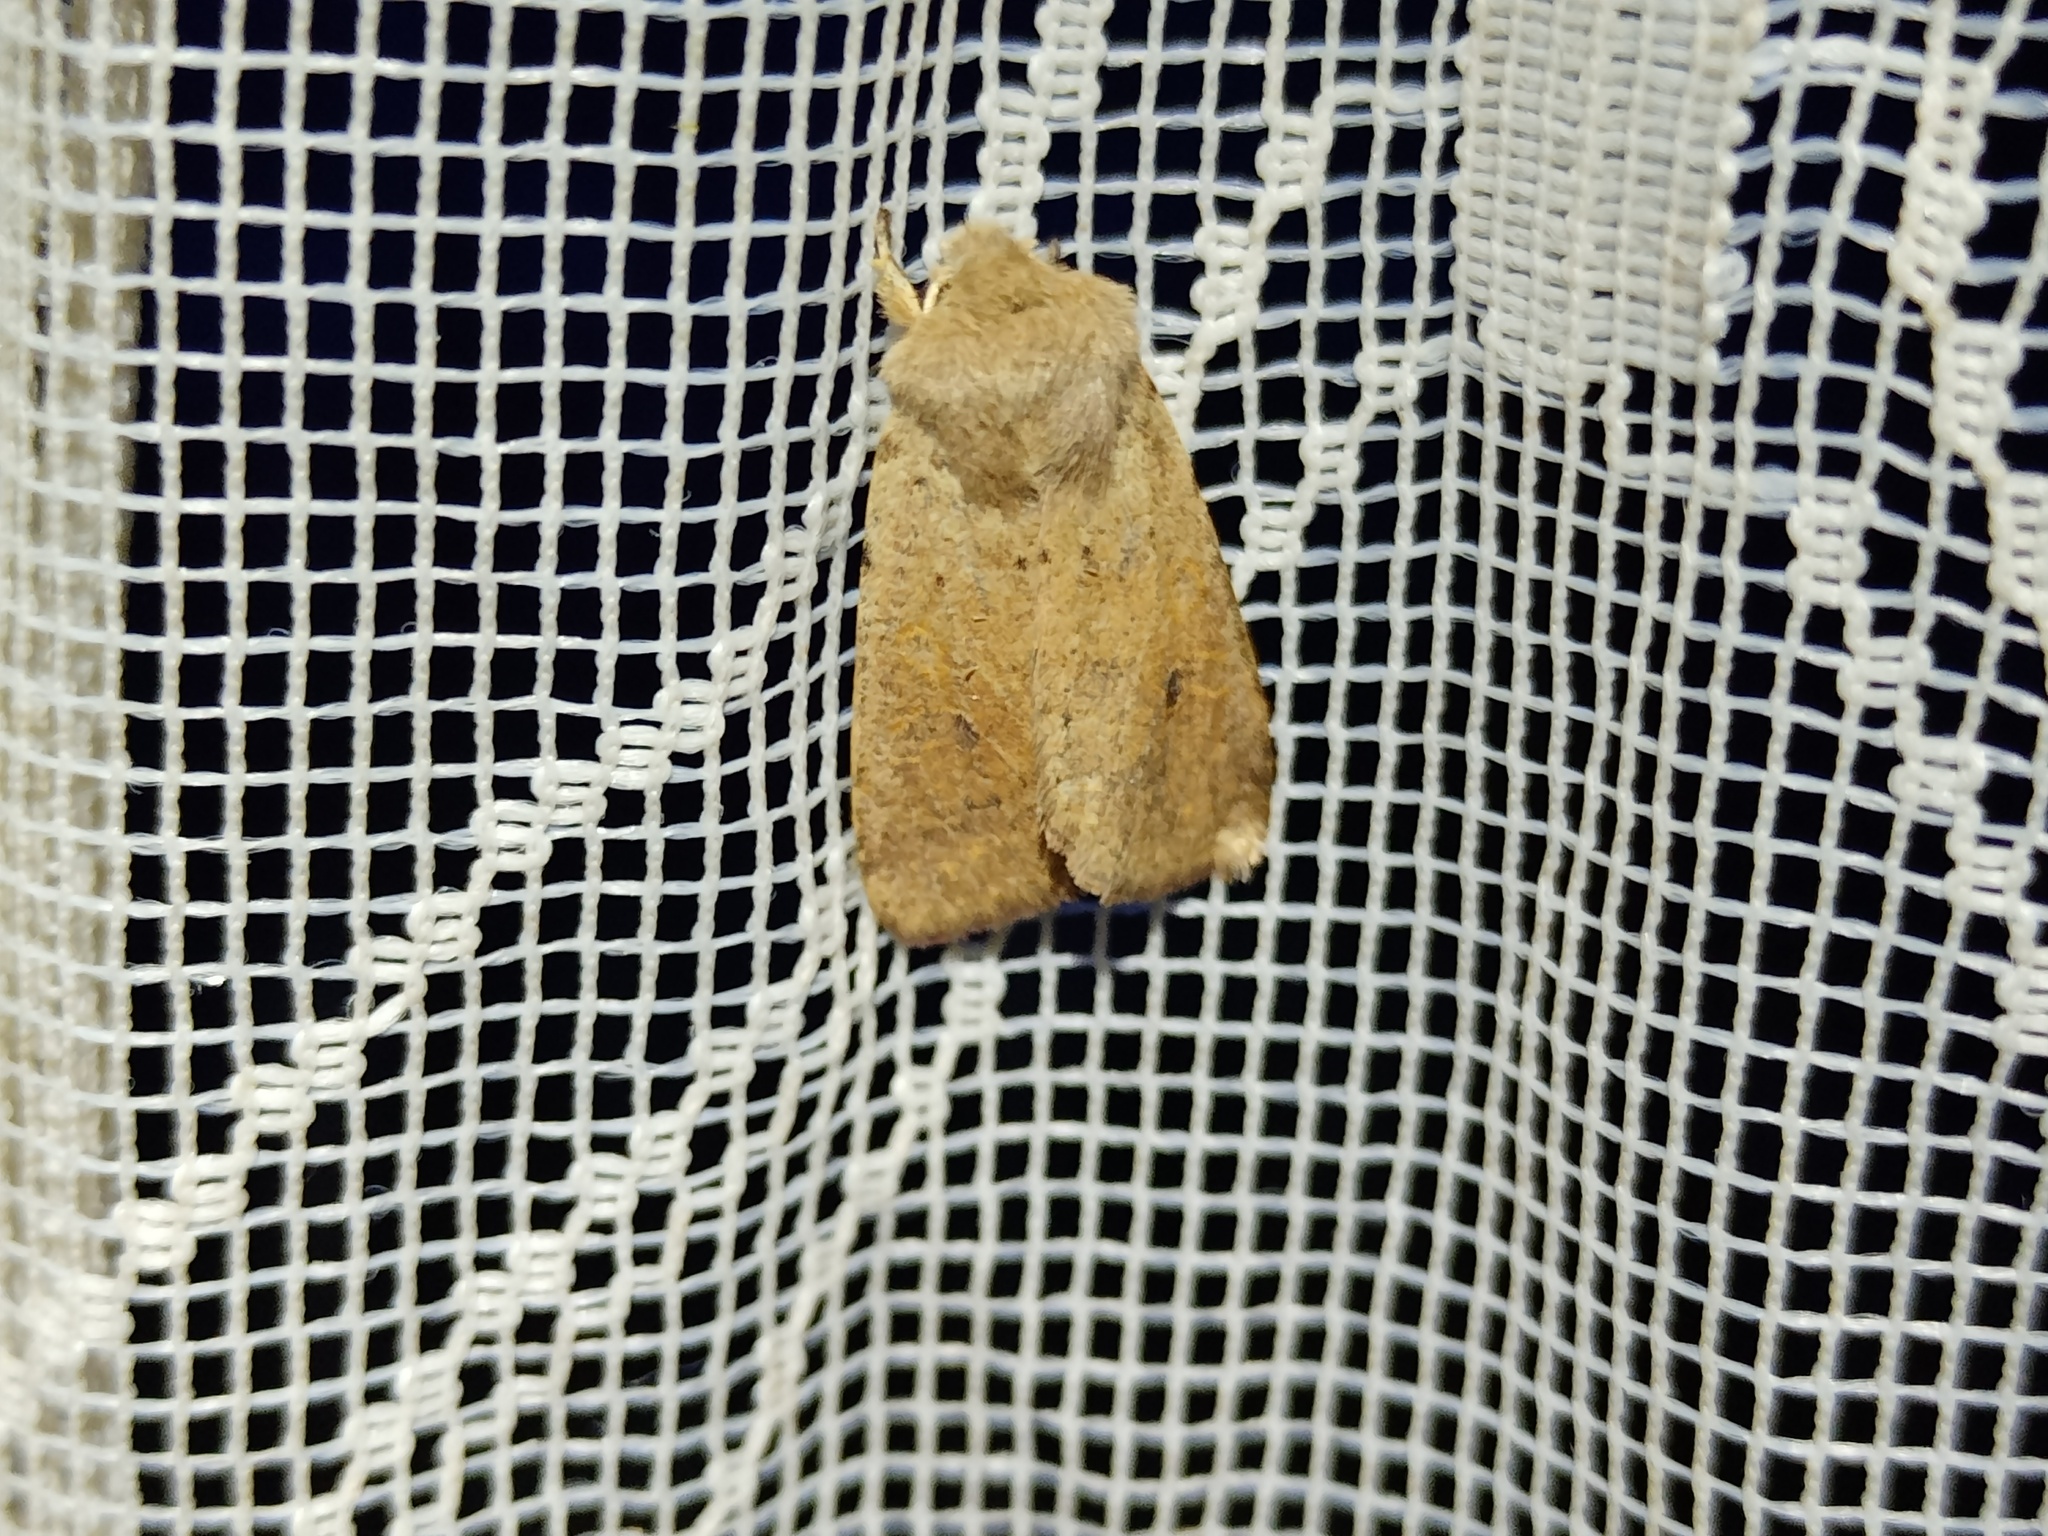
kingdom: Animalia
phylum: Arthropoda
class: Insecta
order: Lepidoptera
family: Noctuidae
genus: Orthosia
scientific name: Orthosia cruda
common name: Small quaker
